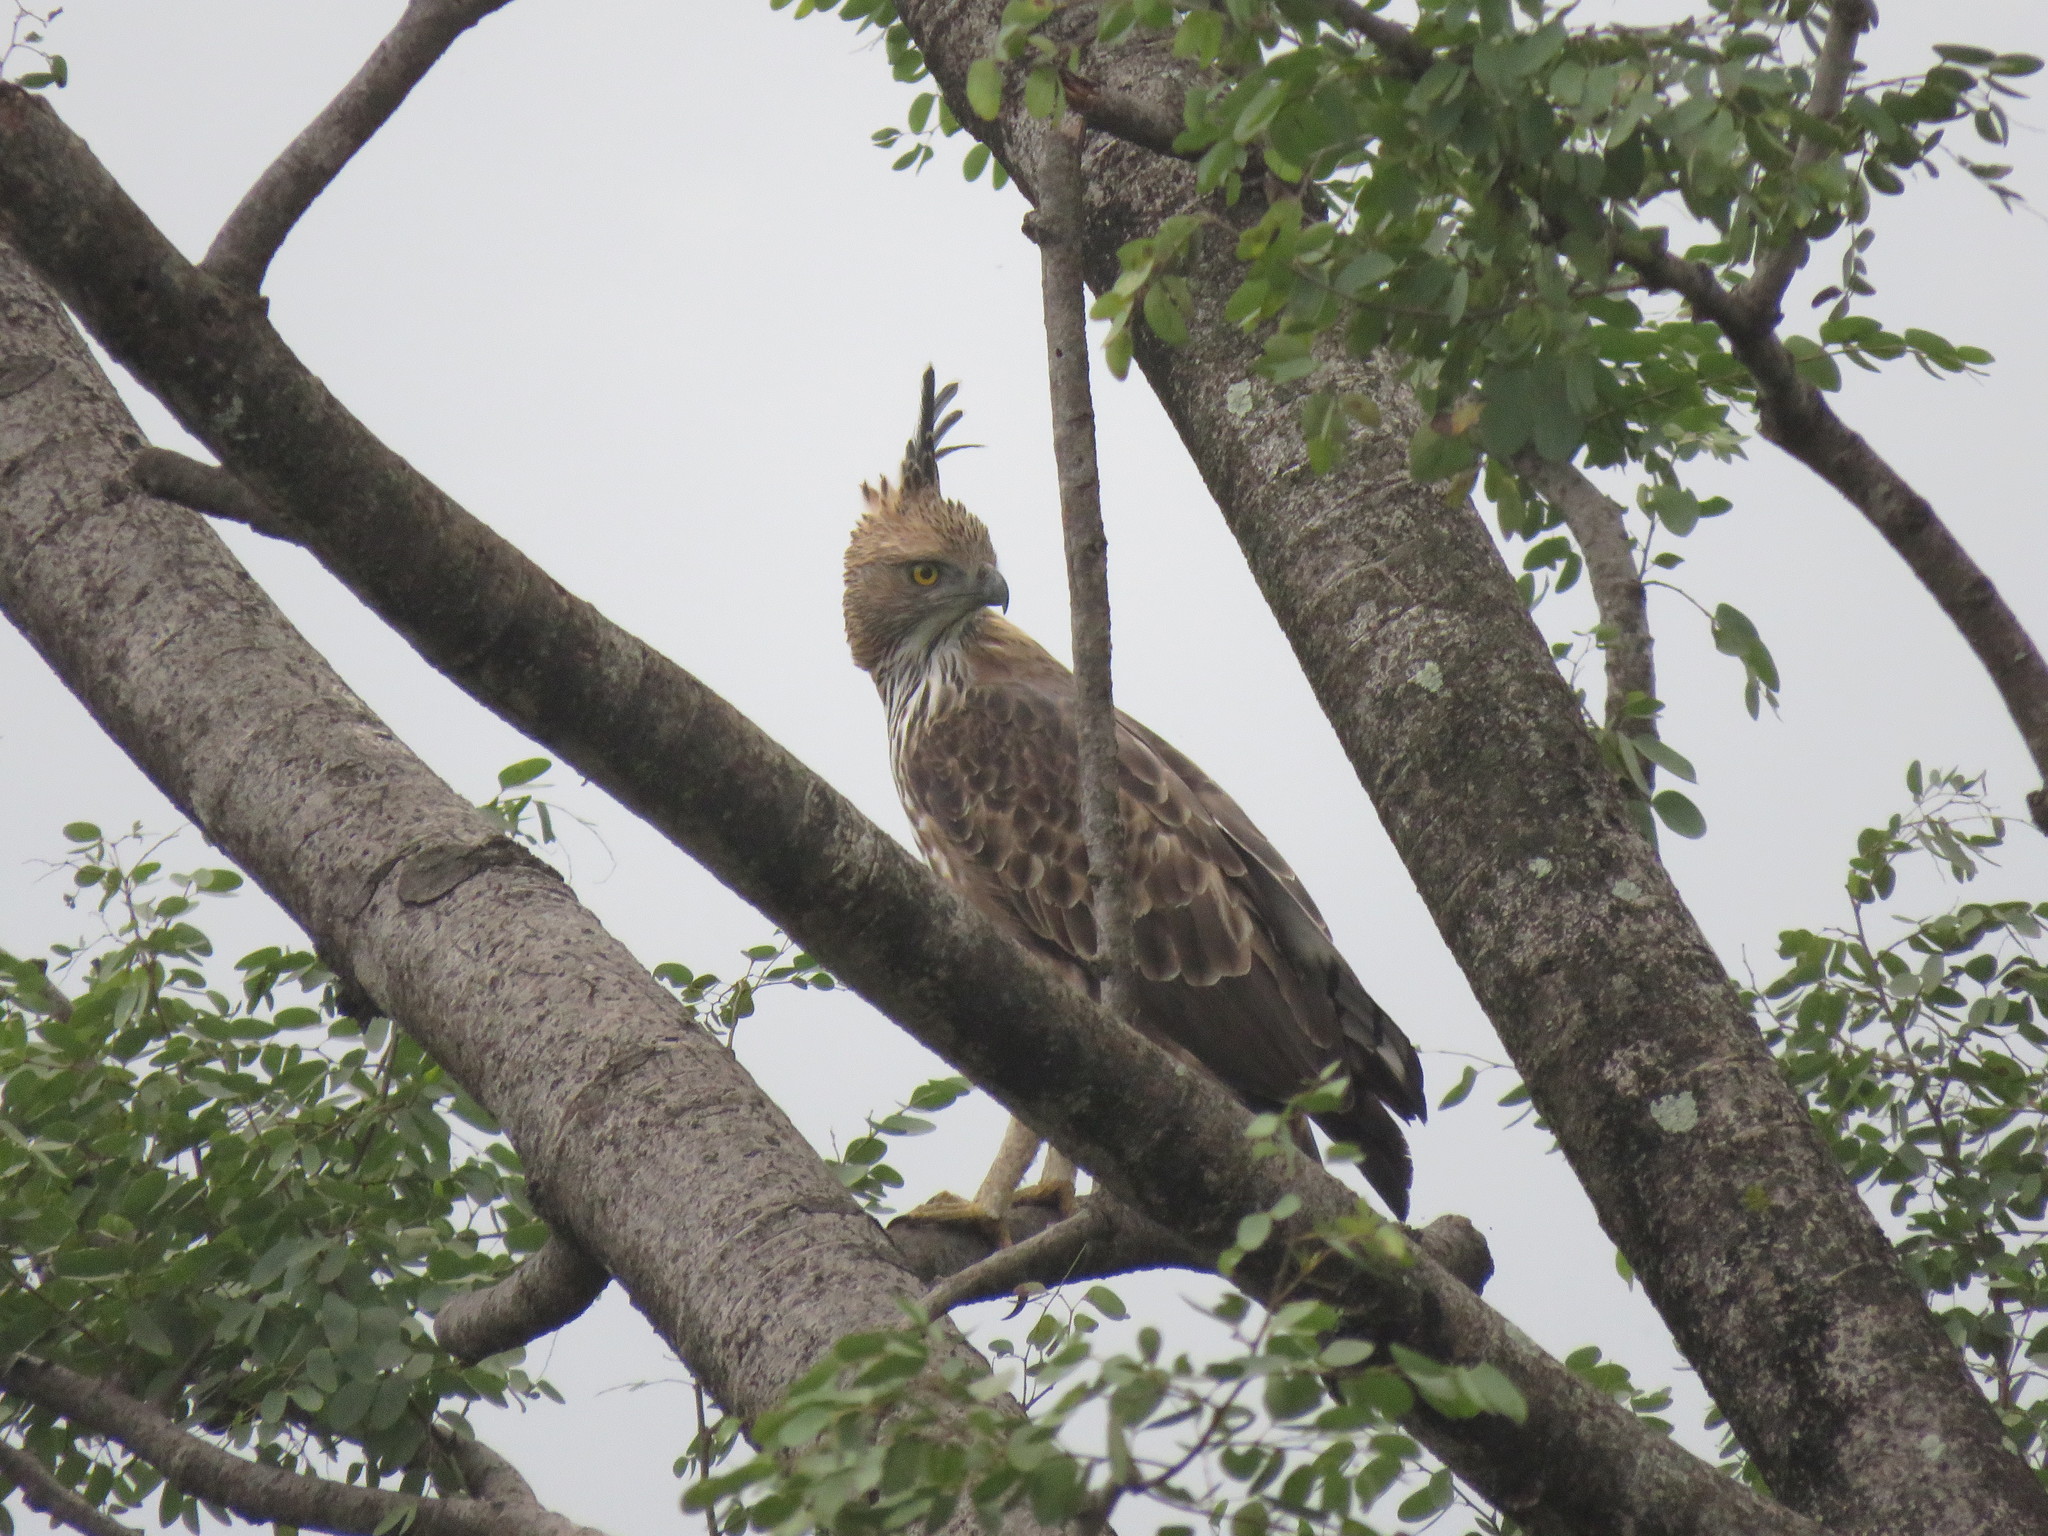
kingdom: Animalia
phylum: Chordata
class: Aves
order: Accipitriformes
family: Accipitridae
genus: Nisaetus
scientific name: Nisaetus cirrhatus
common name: Changeable hawk-eagle
